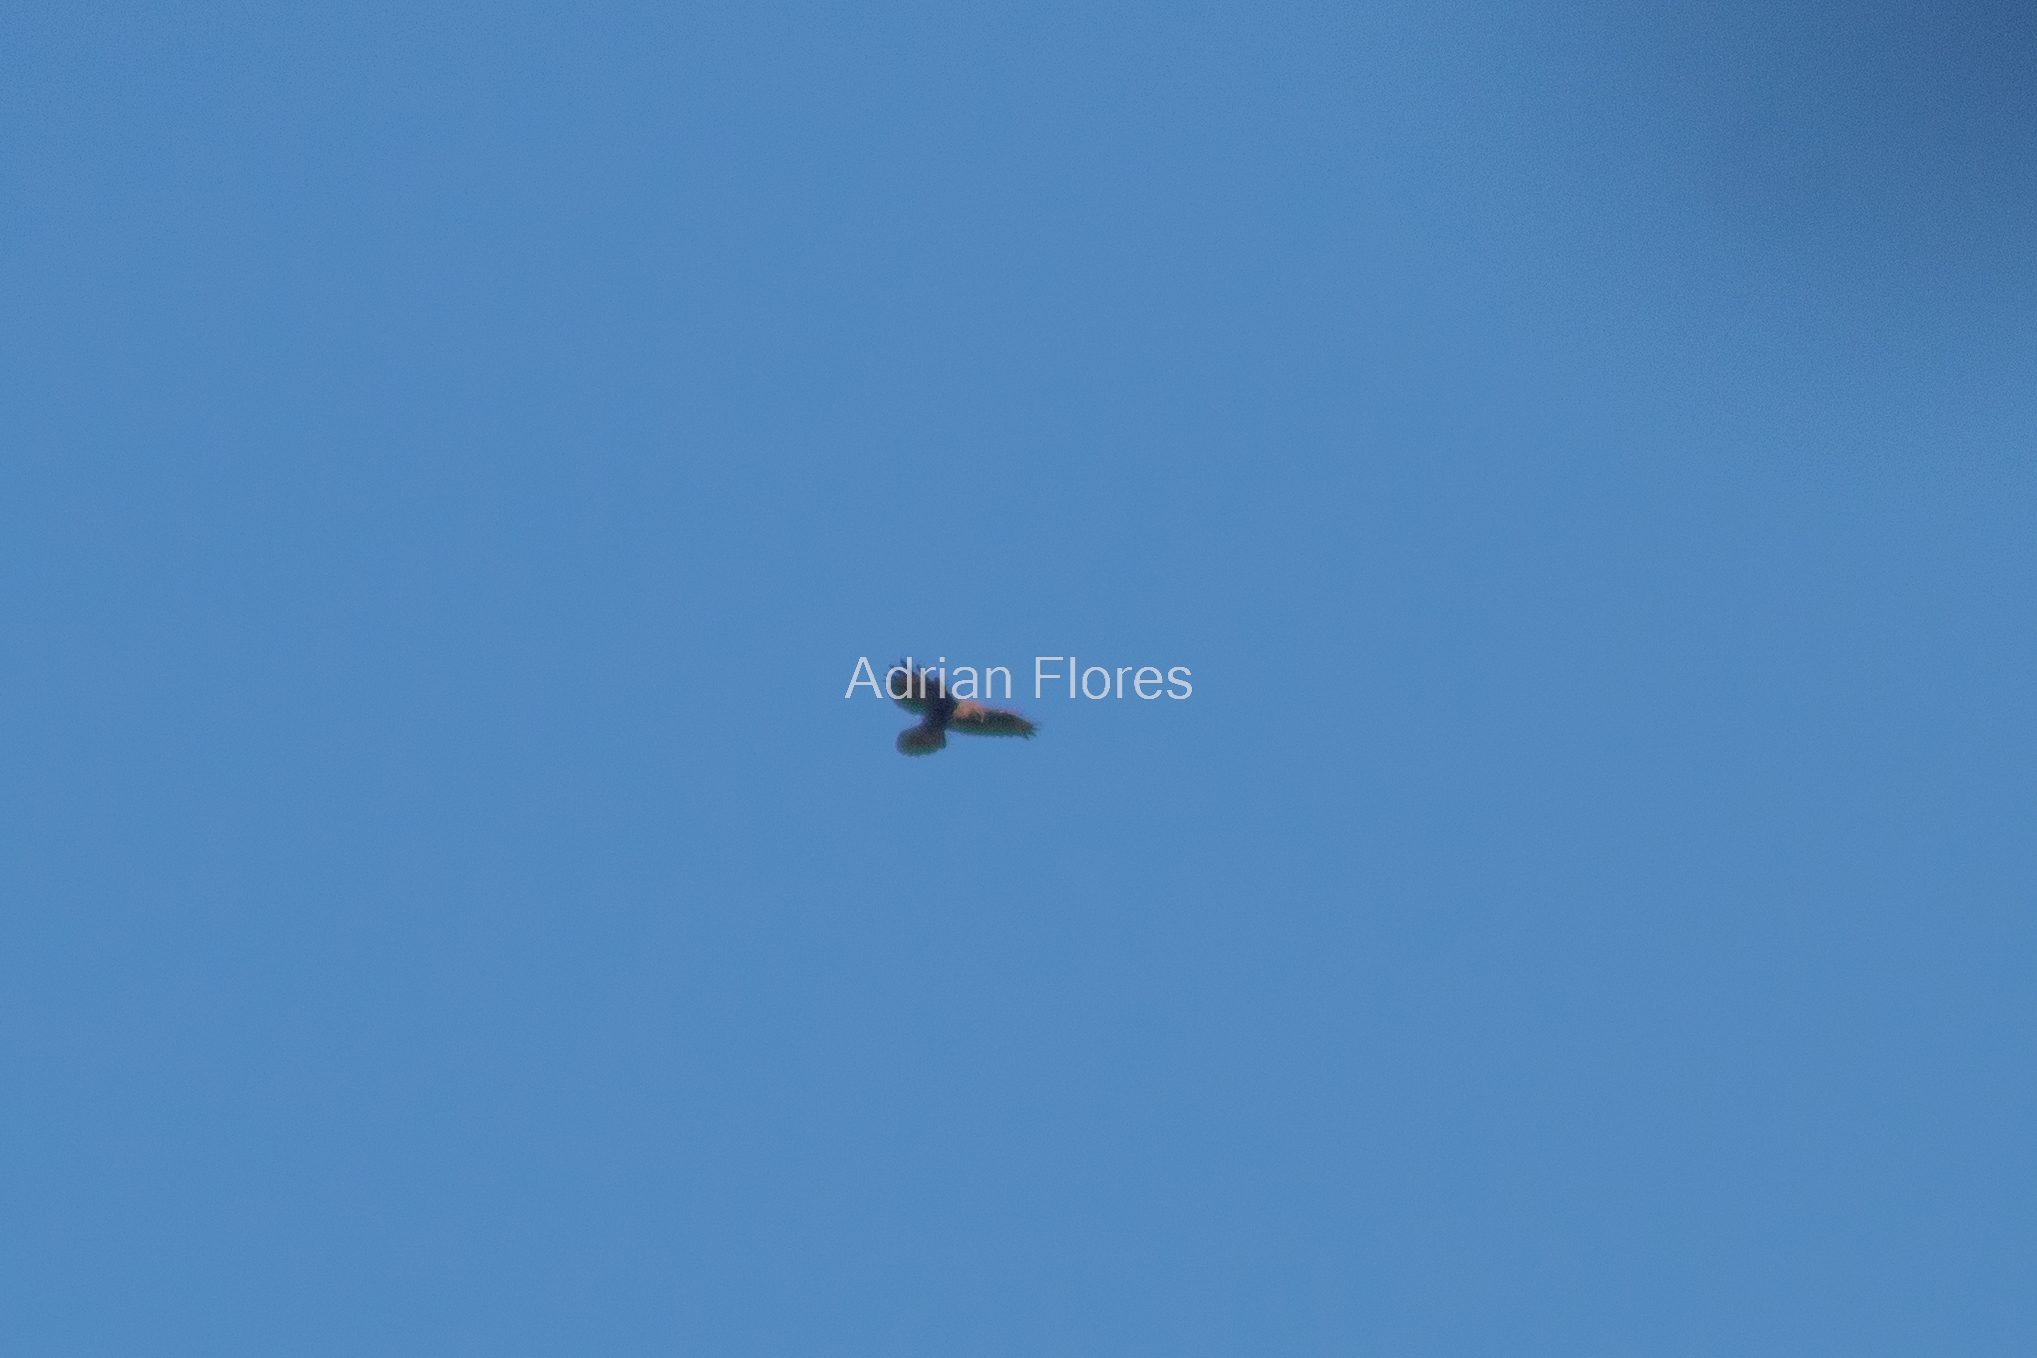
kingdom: Animalia
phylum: Chordata
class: Aves
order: Accipitriformes
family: Accipitridae
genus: Buteo
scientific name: Buteo buteo
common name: Common buzzard
